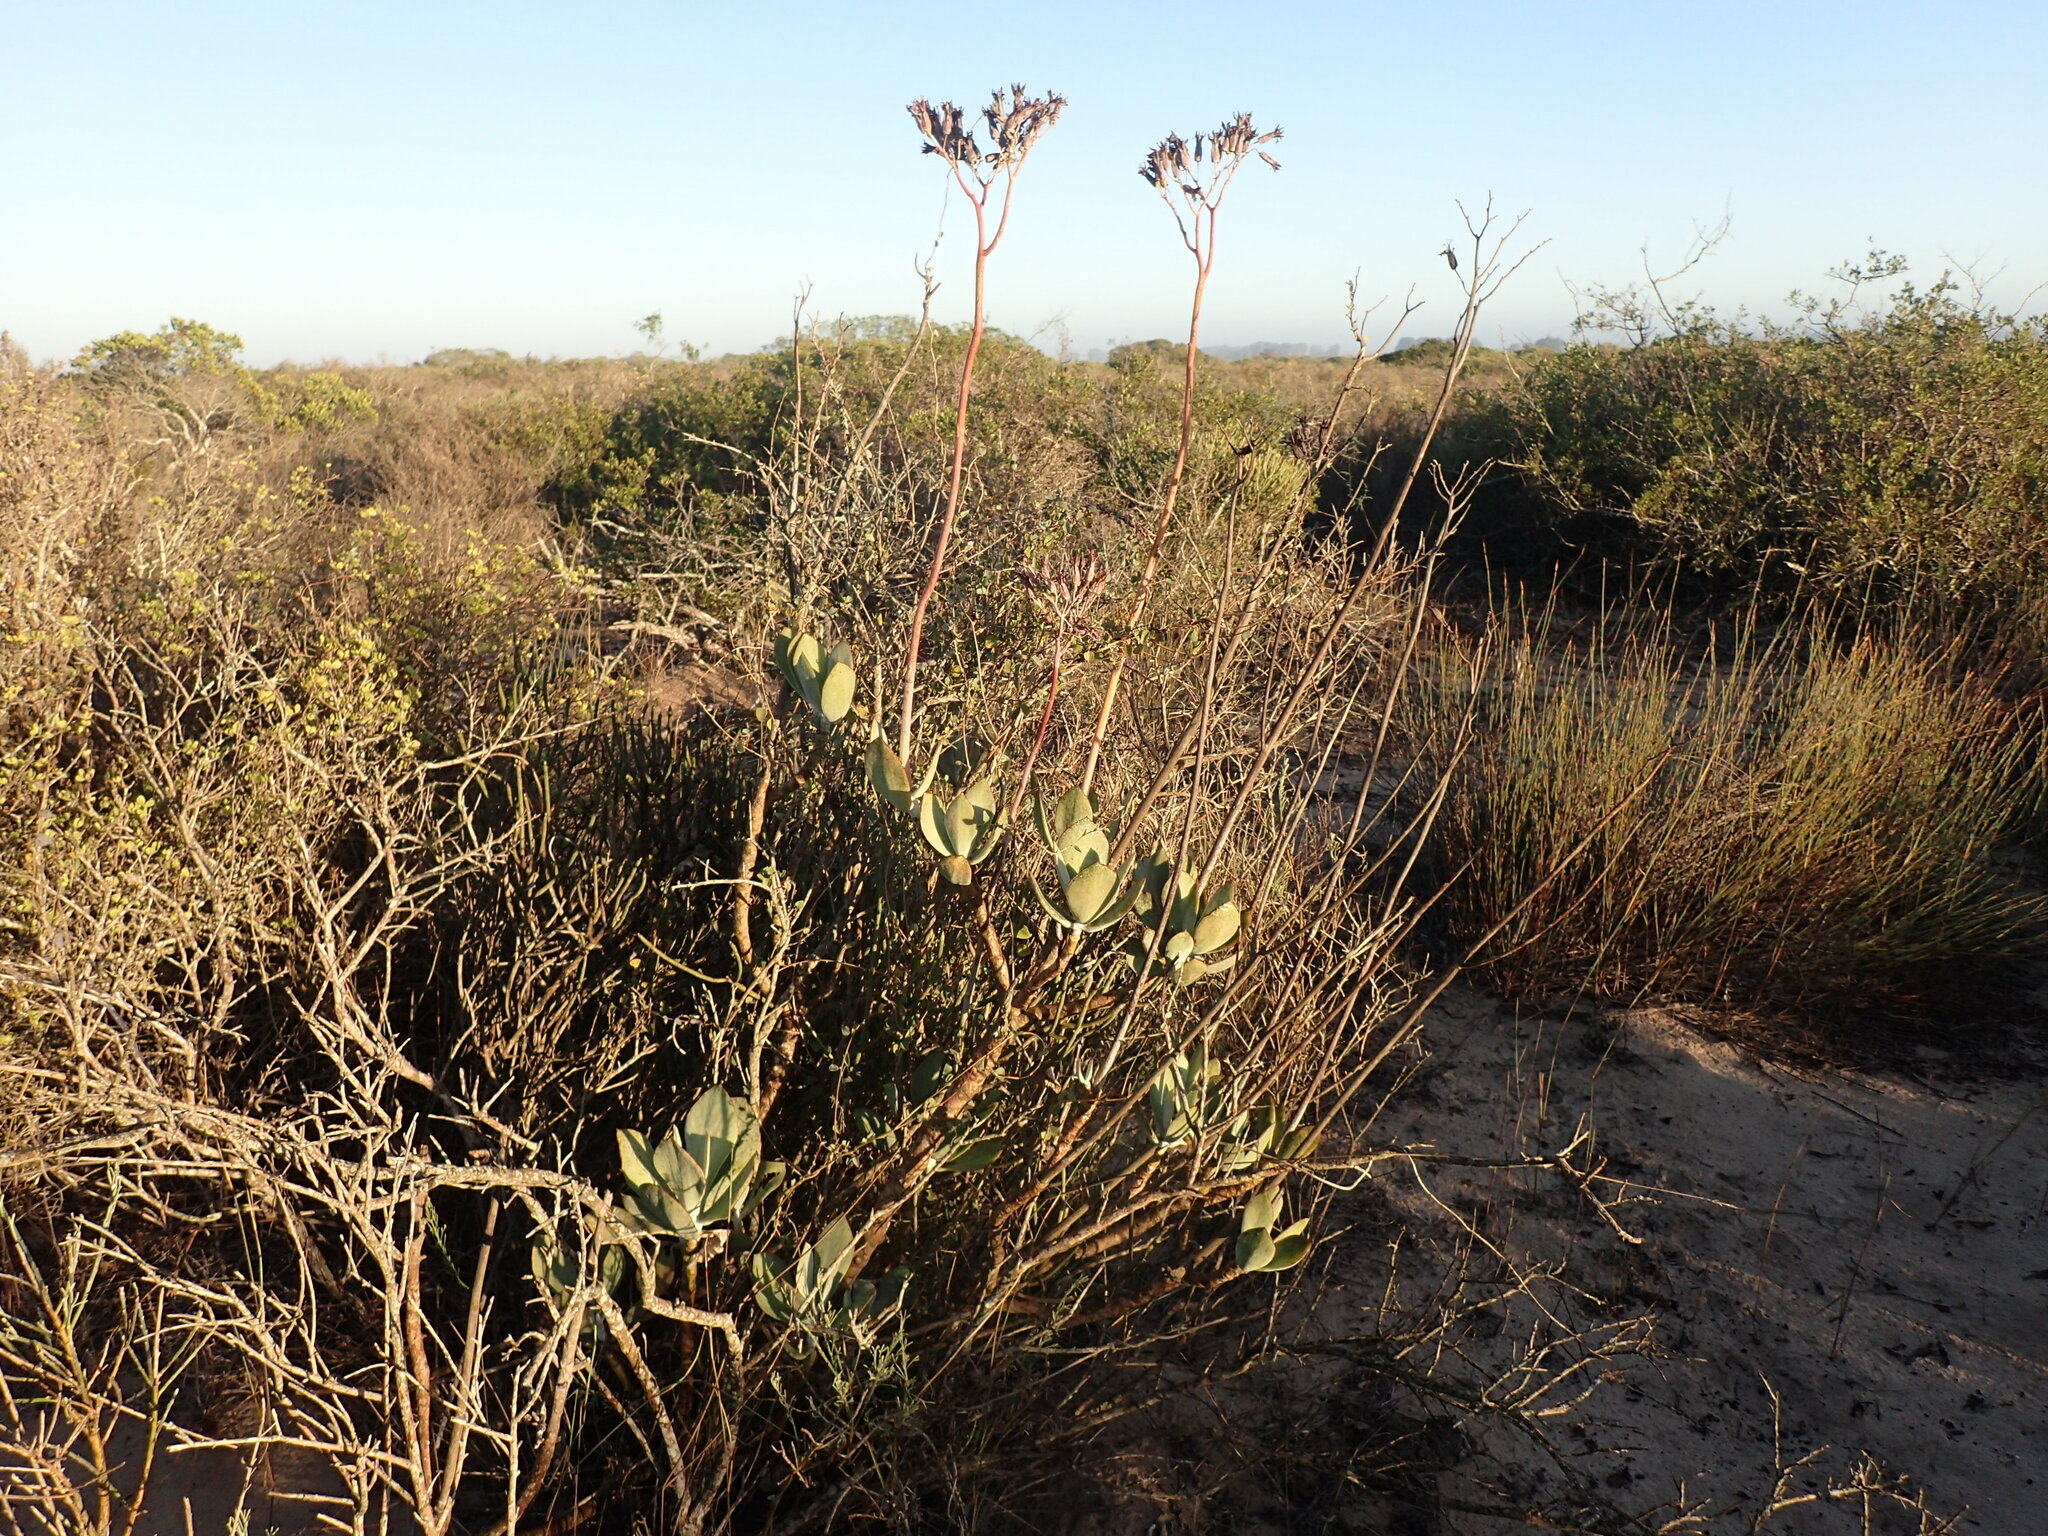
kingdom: Plantae
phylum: Tracheophyta
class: Magnoliopsida
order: Saxifragales
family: Crassulaceae
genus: Cotyledon
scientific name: Cotyledon orbiculata
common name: Pig's ear
